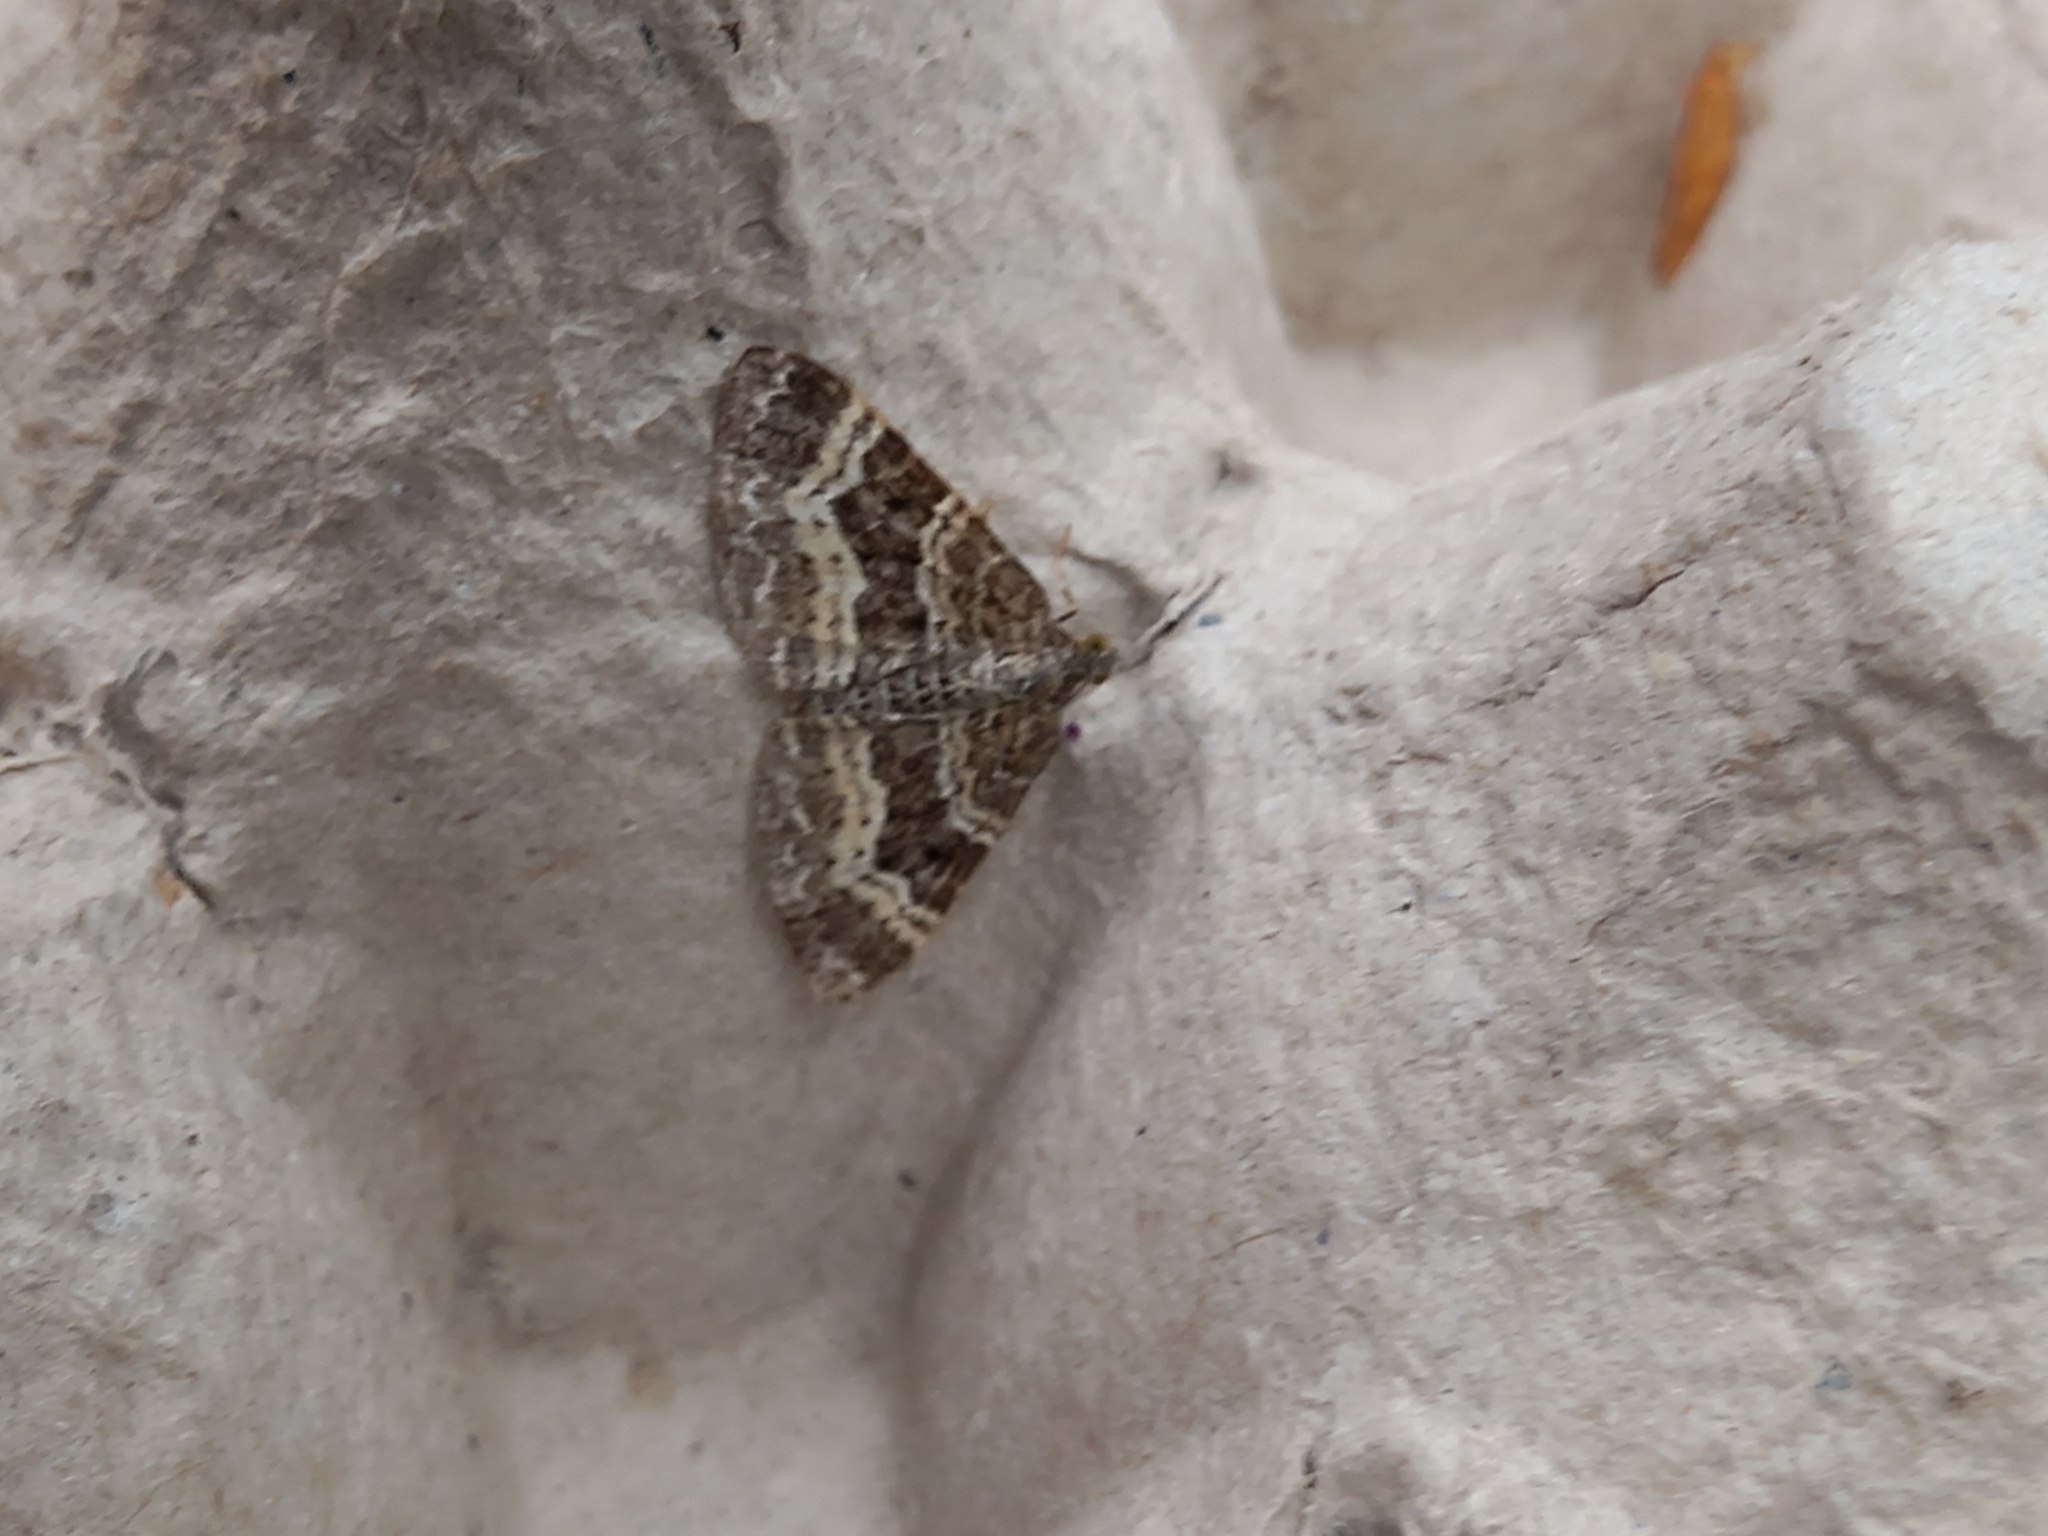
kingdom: Animalia
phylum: Arthropoda
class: Insecta
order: Lepidoptera
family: Geometridae
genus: Epirrhoe
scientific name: Epirrhoe alternata
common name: Common carpet
